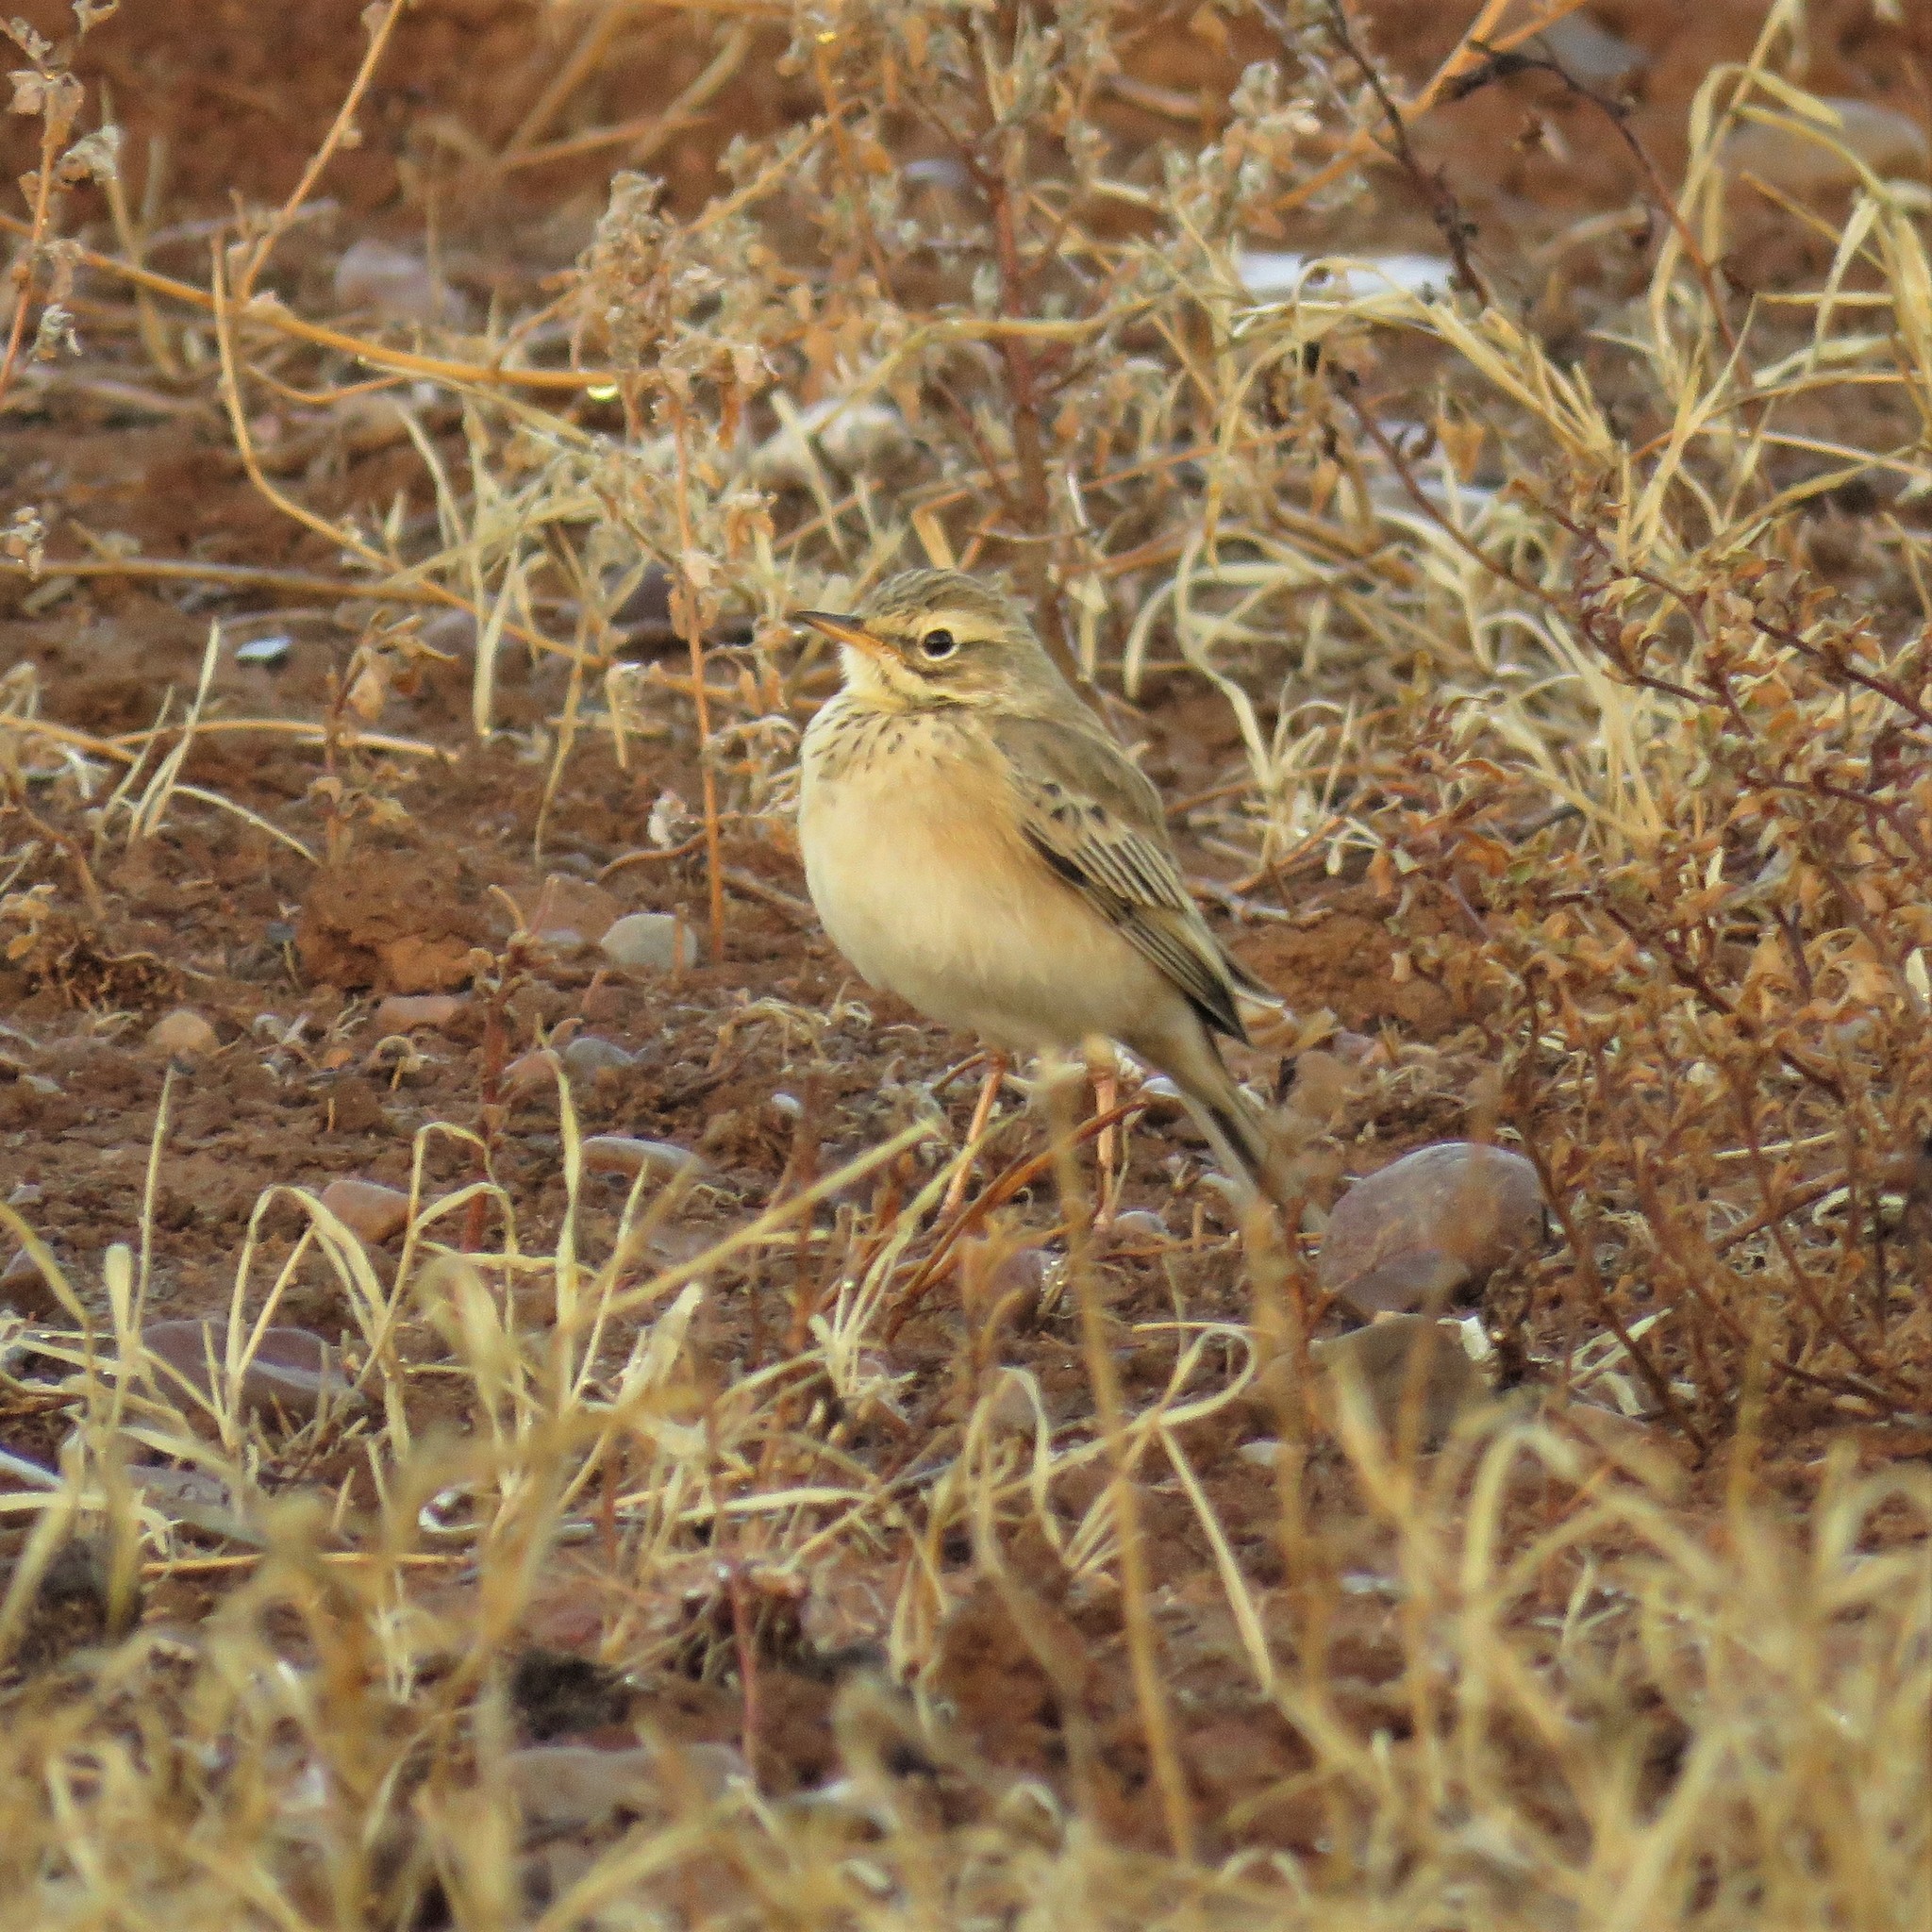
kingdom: Animalia
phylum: Chordata
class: Aves
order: Passeriformes
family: Motacillidae
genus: Anthus
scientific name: Anthus cinnamomeus
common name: African pipit
